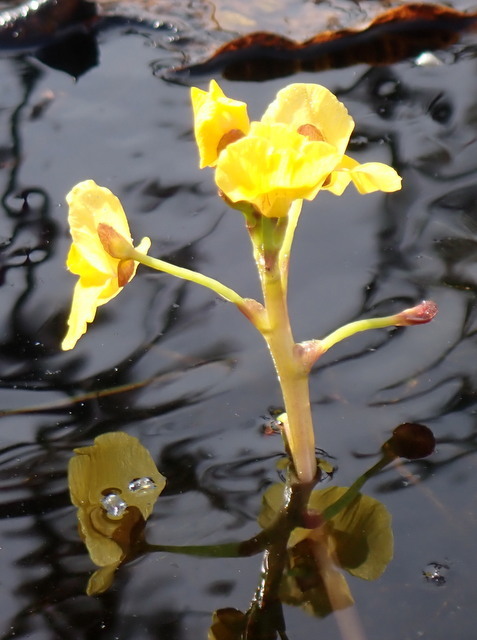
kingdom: Plantae
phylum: Tracheophyta
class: Magnoliopsida
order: Lamiales
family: Lentibulariaceae
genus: Utricularia
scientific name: Utricularia foliosa
